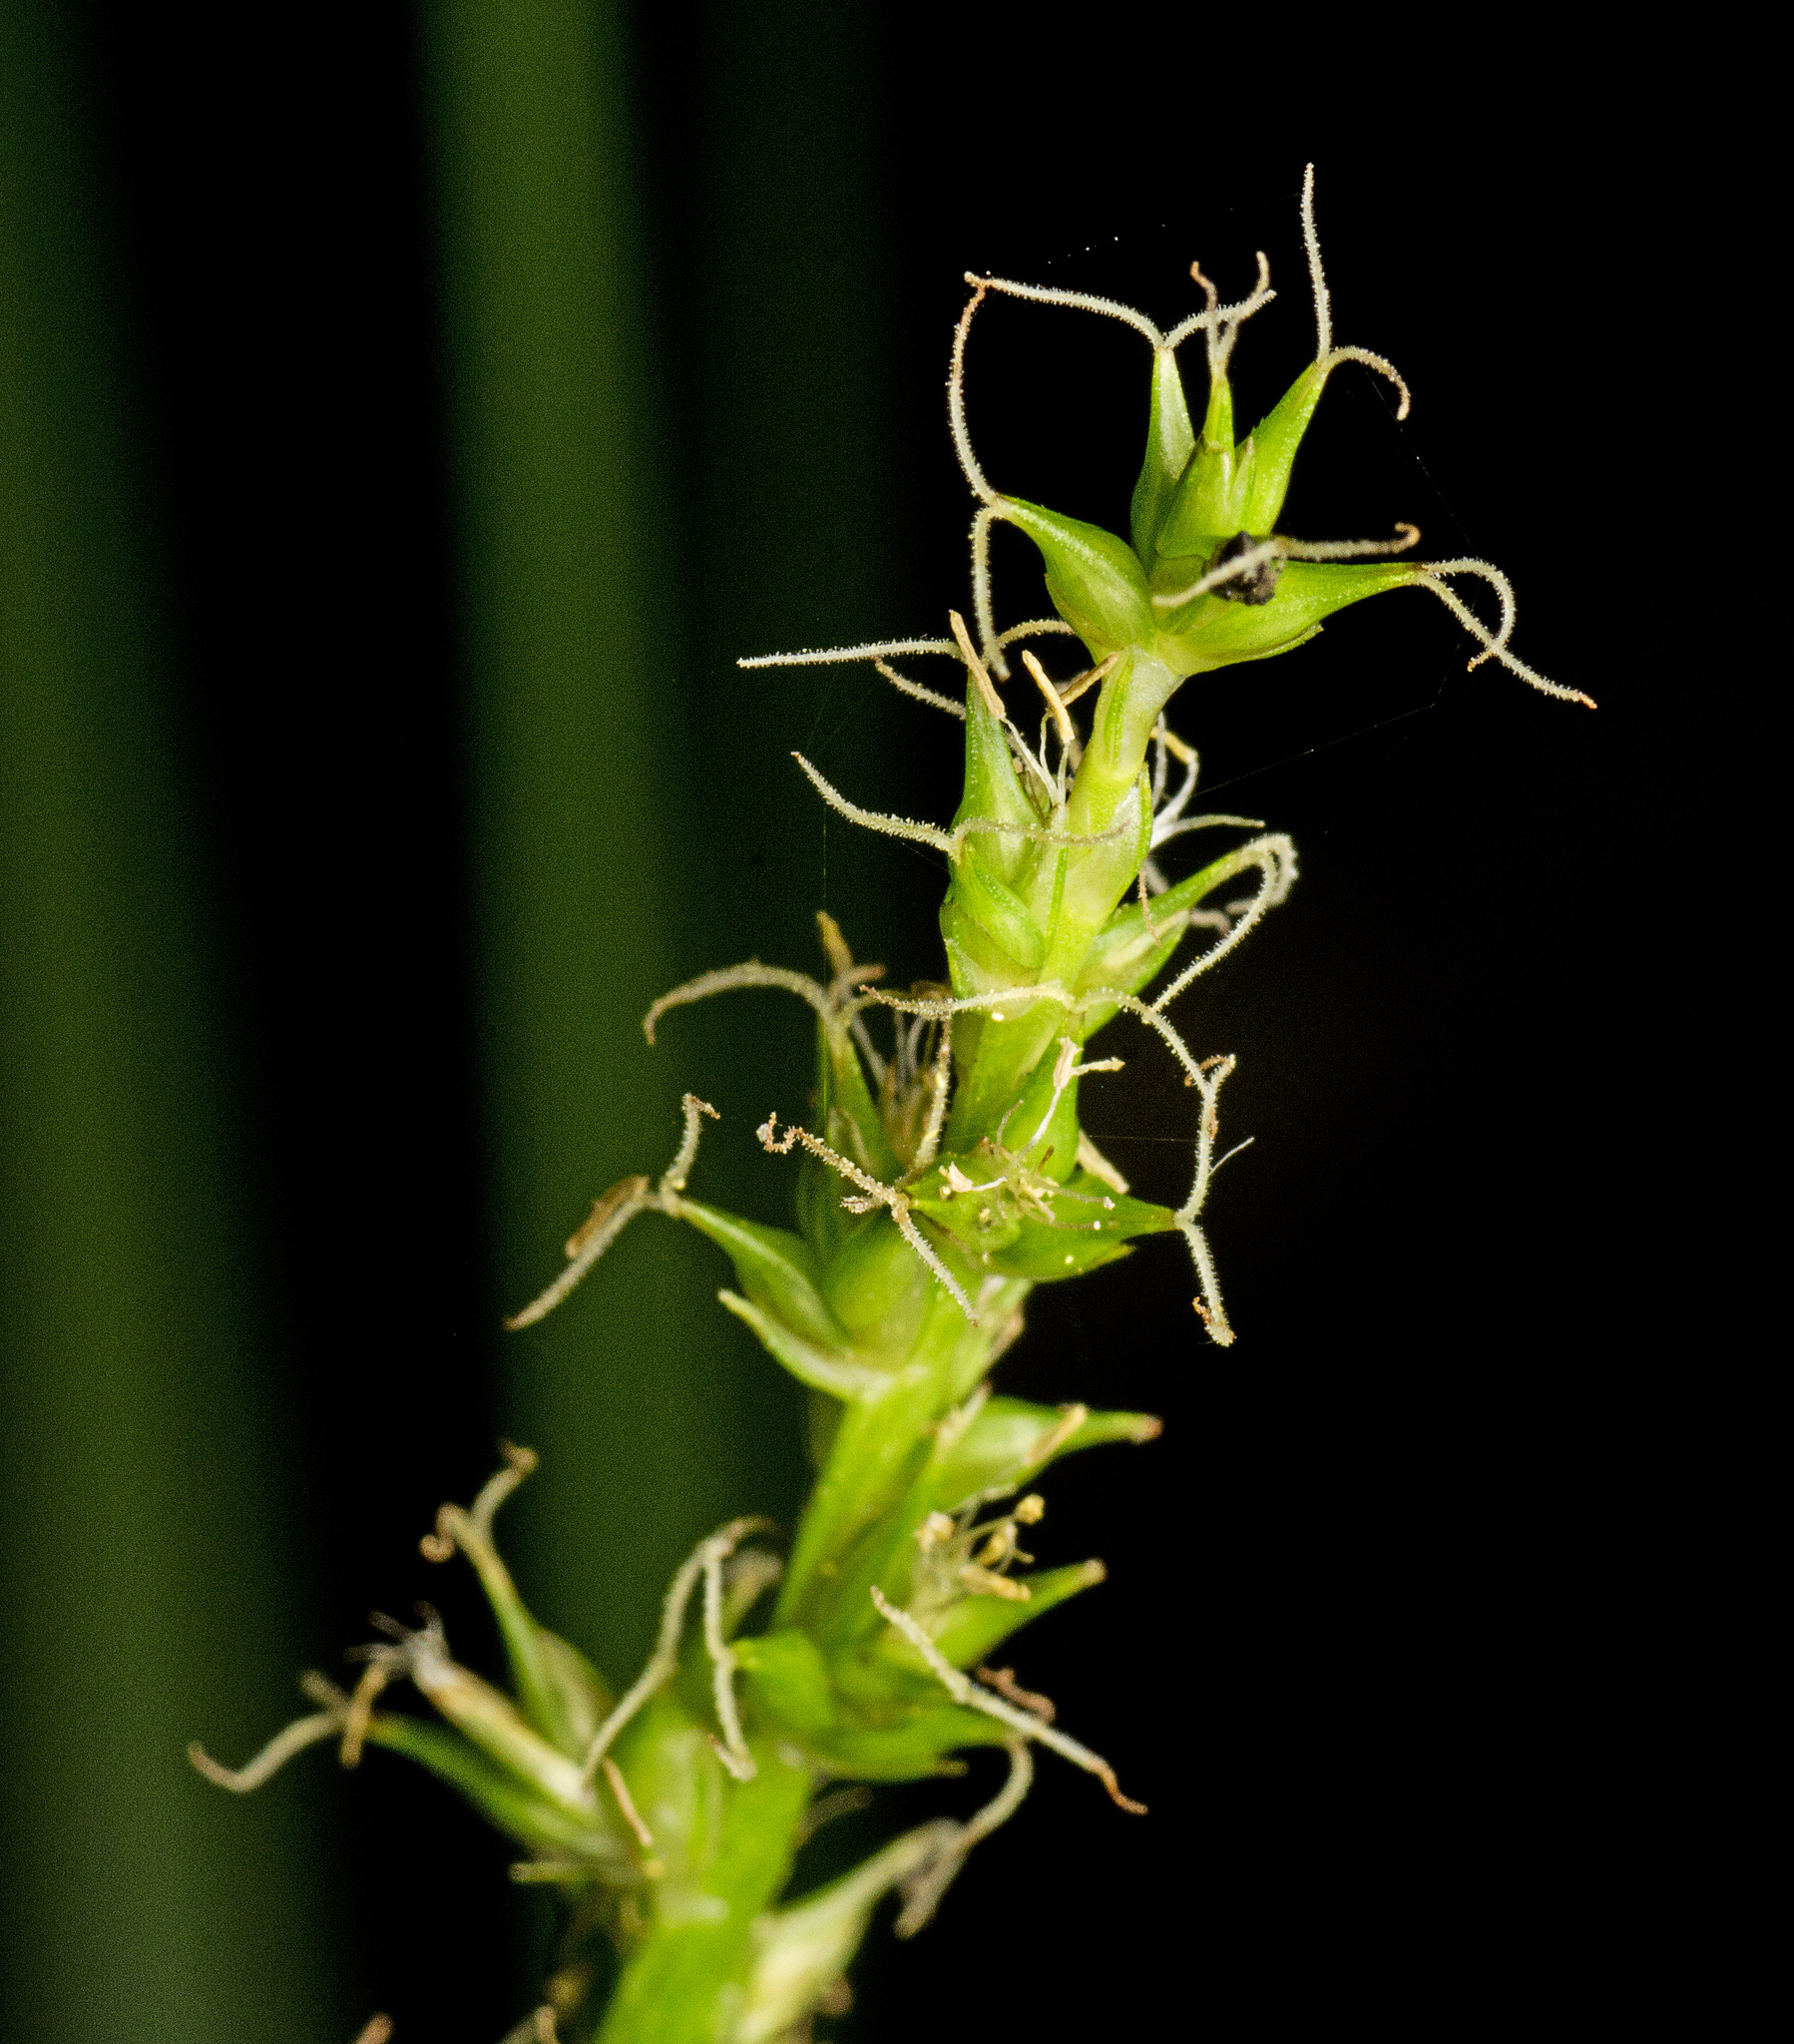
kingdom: Plantae
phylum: Tracheophyta
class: Liliopsida
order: Poales
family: Cyperaceae
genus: Carex
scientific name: Carex declinata
